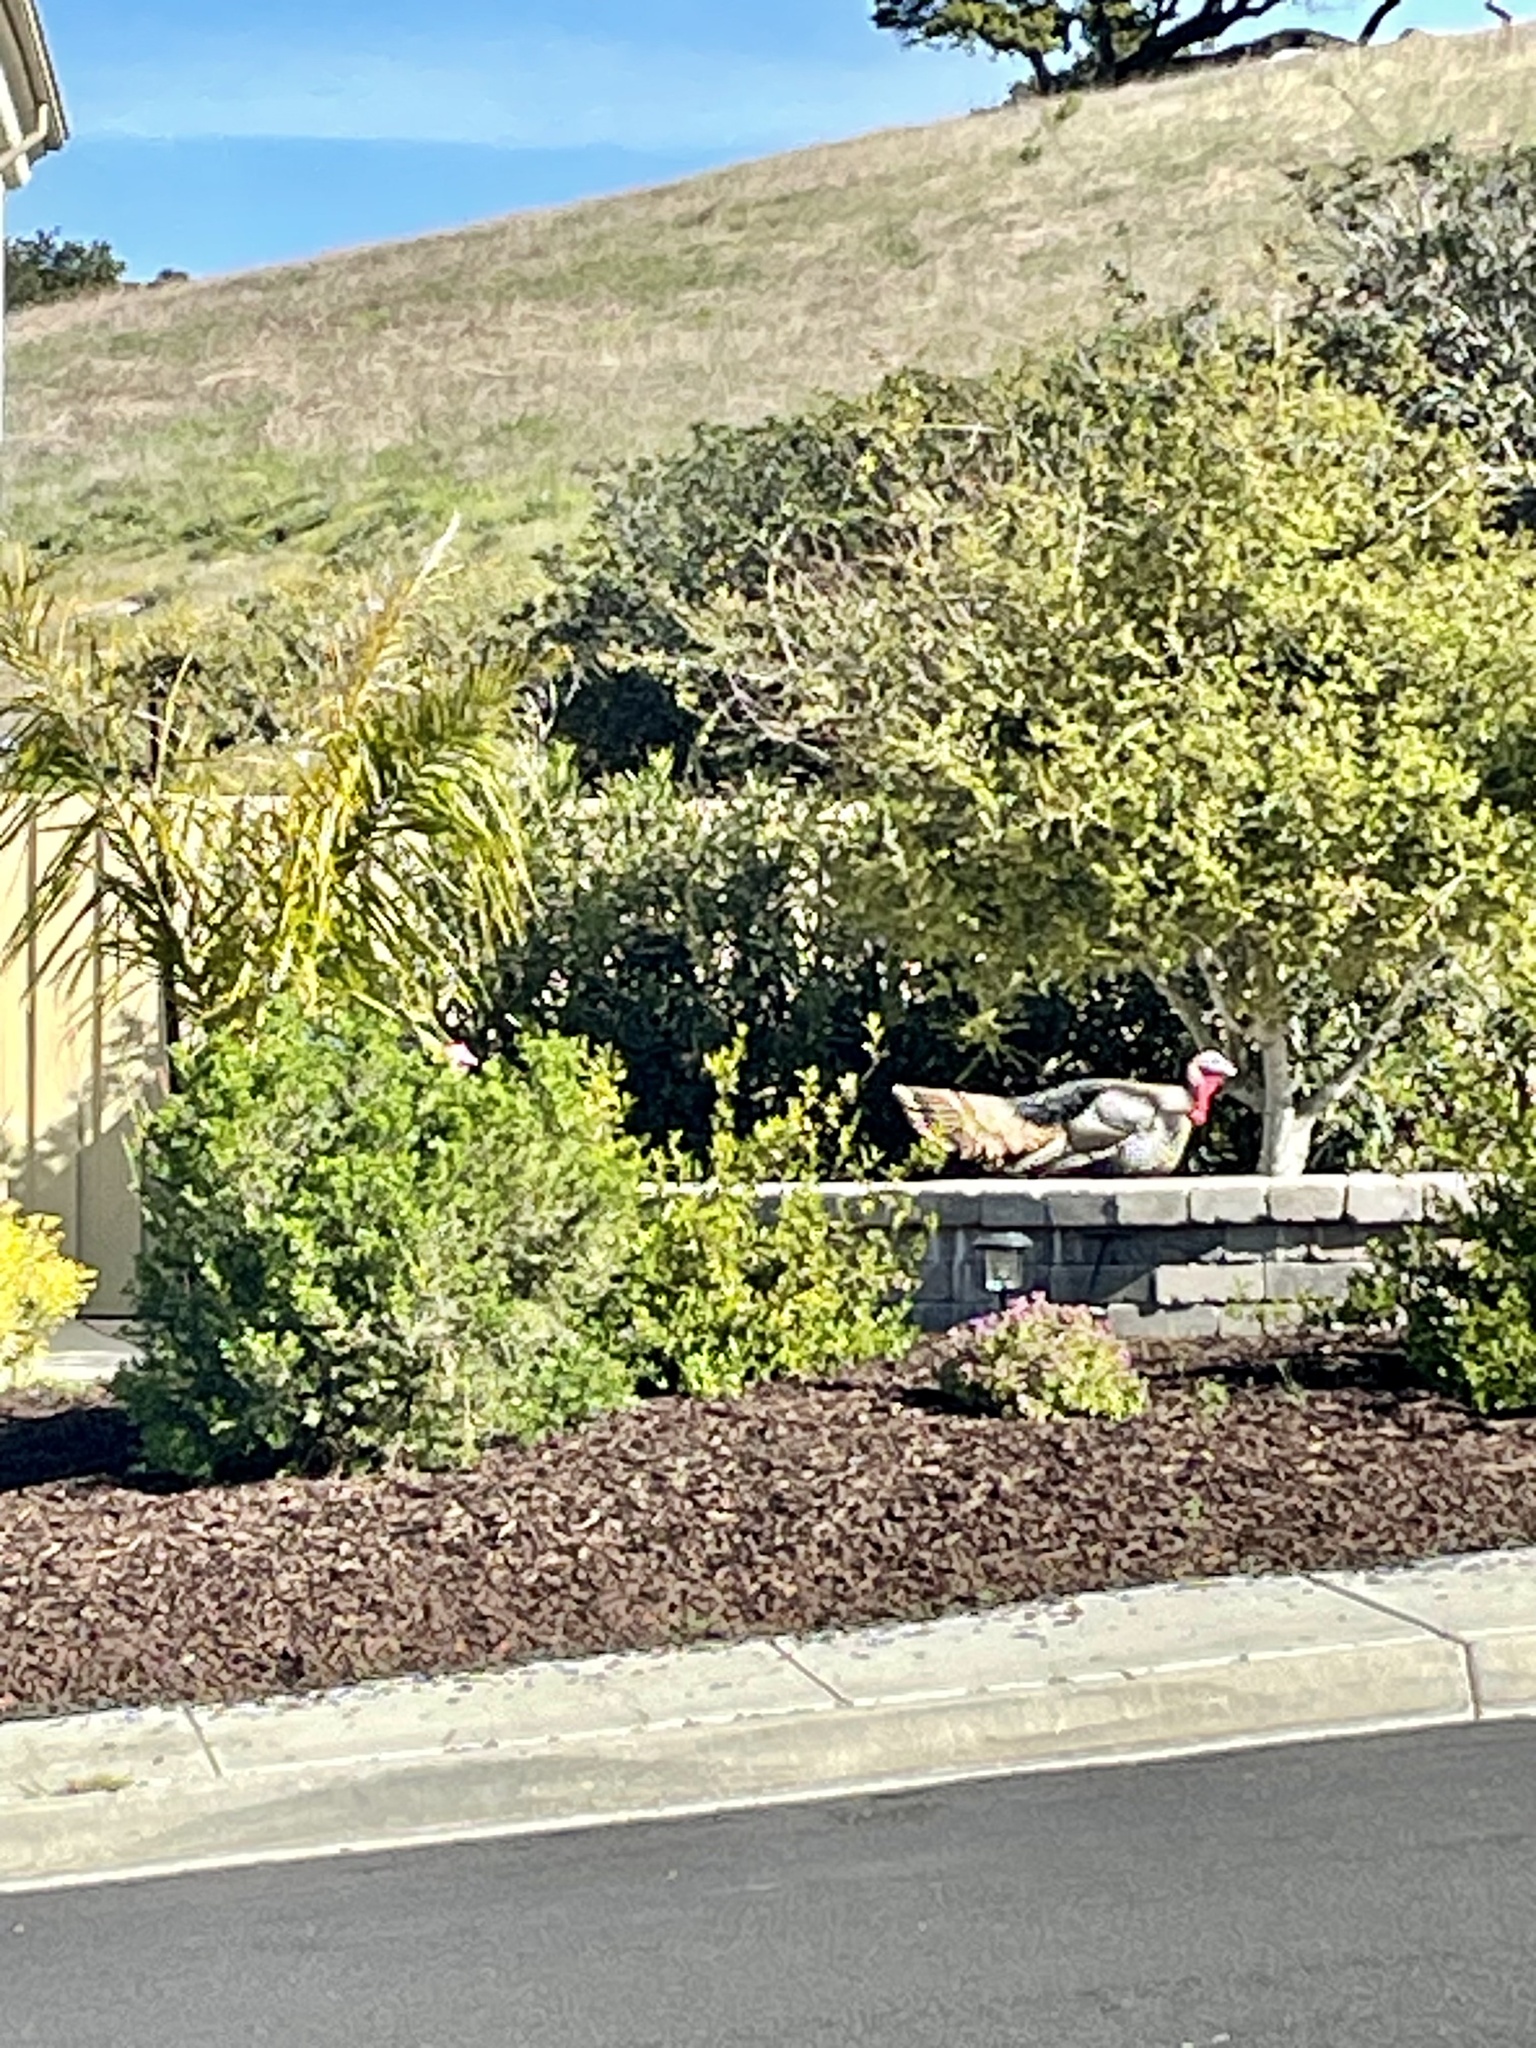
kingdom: Animalia
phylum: Chordata
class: Aves
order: Galliformes
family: Phasianidae
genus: Meleagris
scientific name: Meleagris gallopavo
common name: Wild turkey
